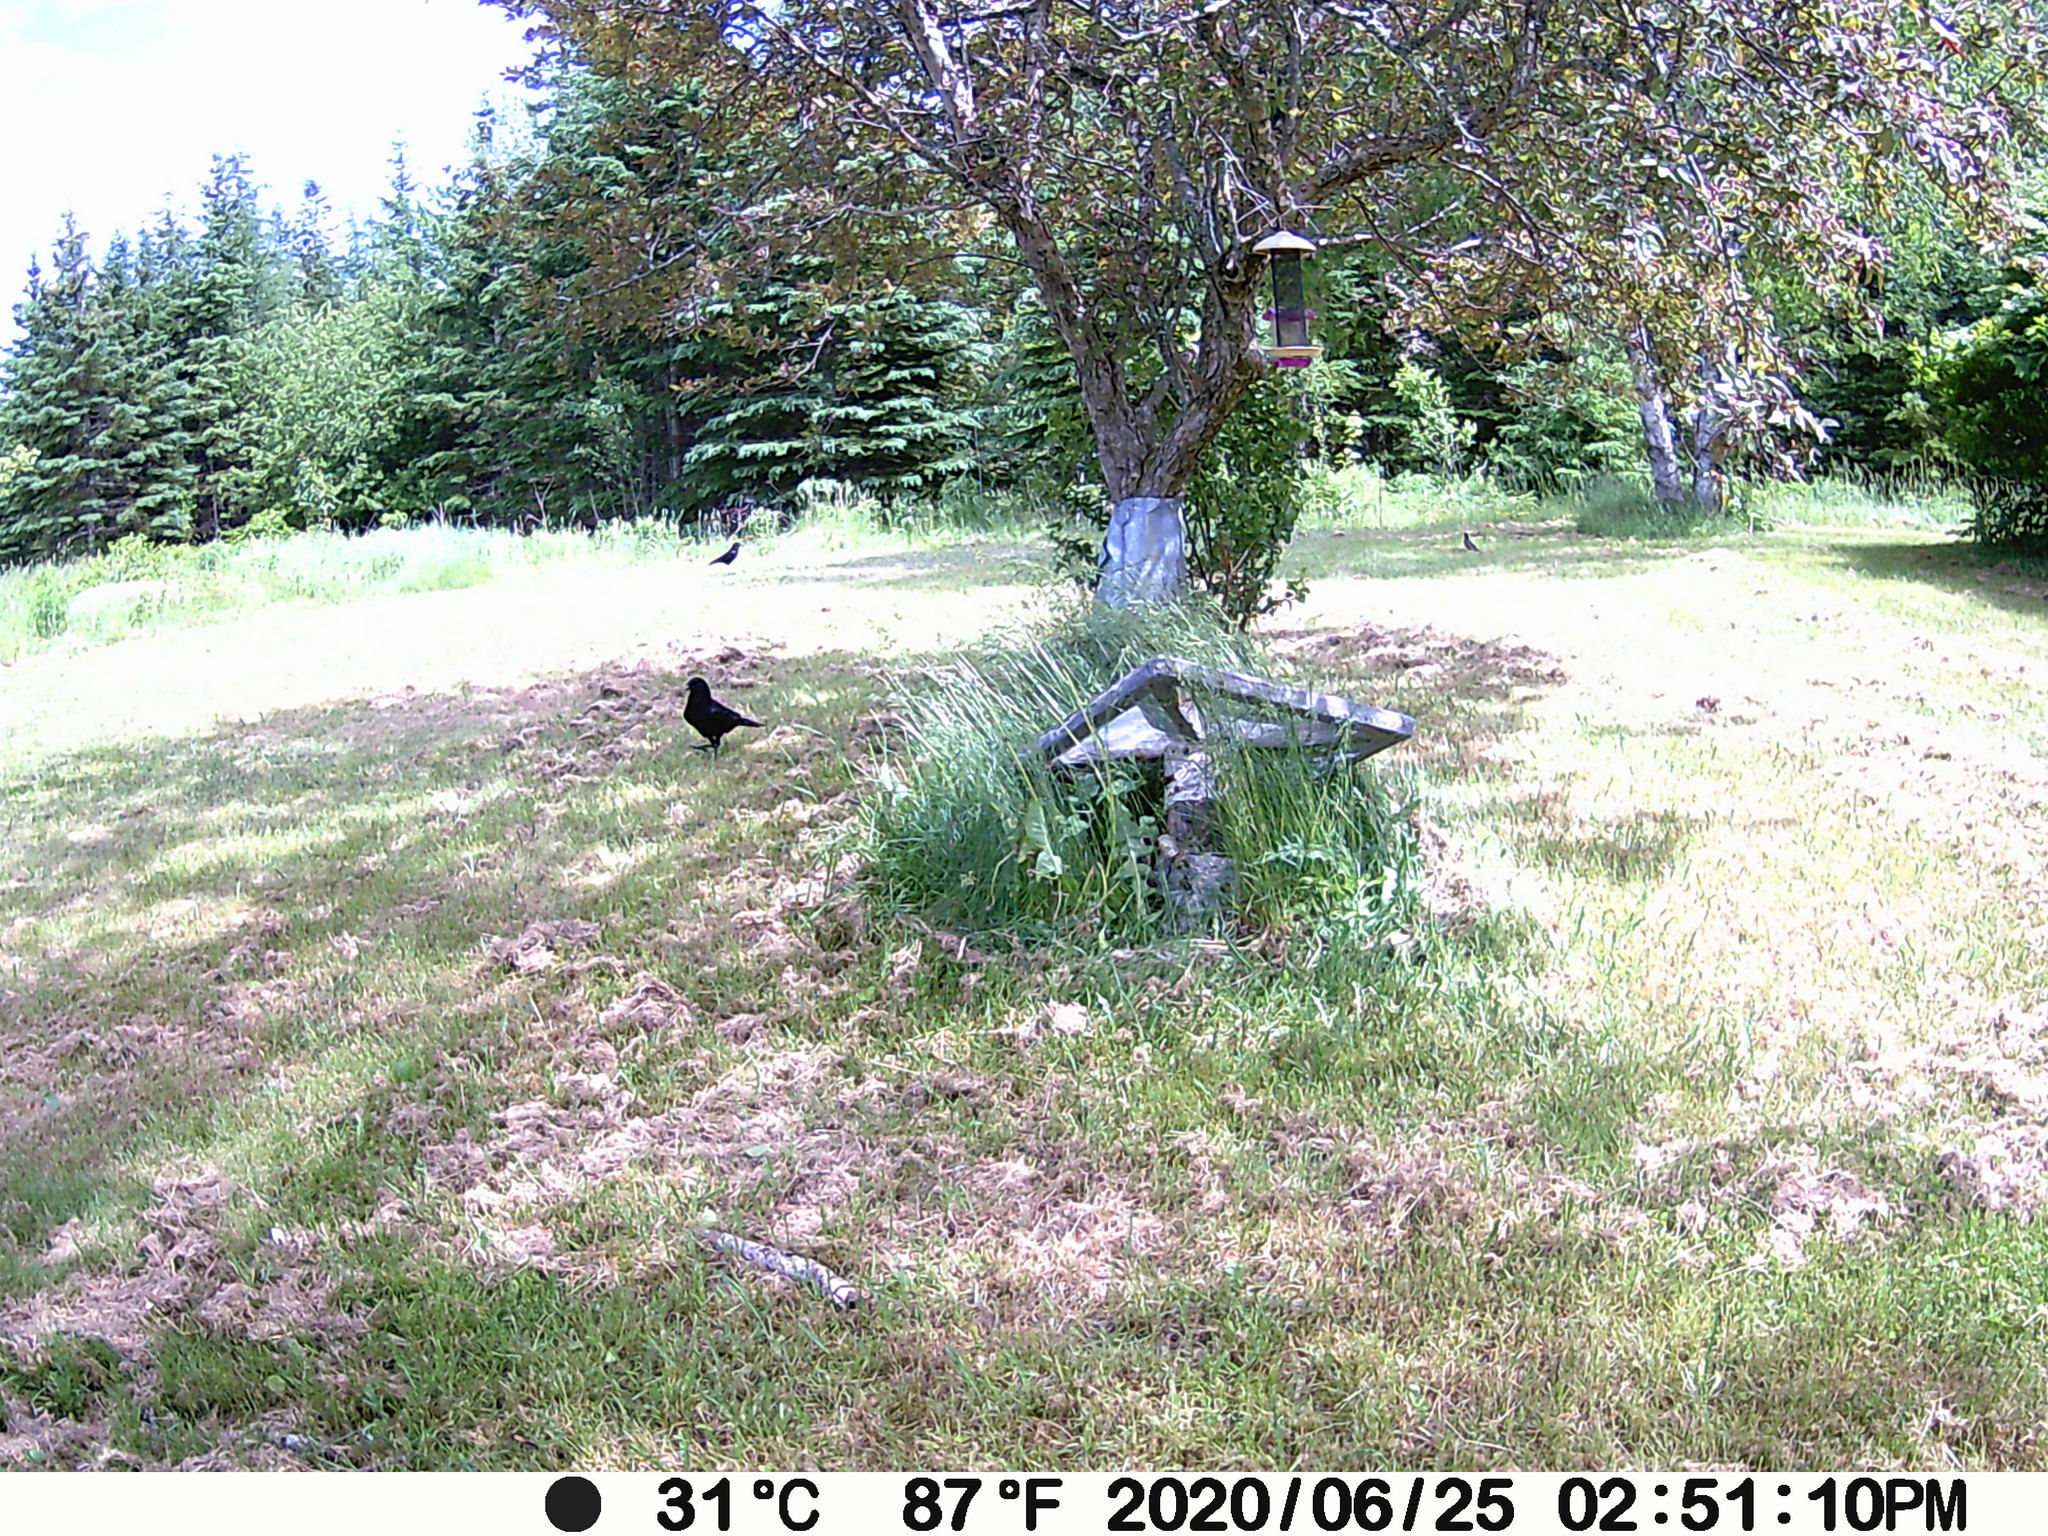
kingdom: Animalia
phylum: Chordata
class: Aves
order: Passeriformes
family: Turdidae
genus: Turdus
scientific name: Turdus migratorius
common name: American robin
